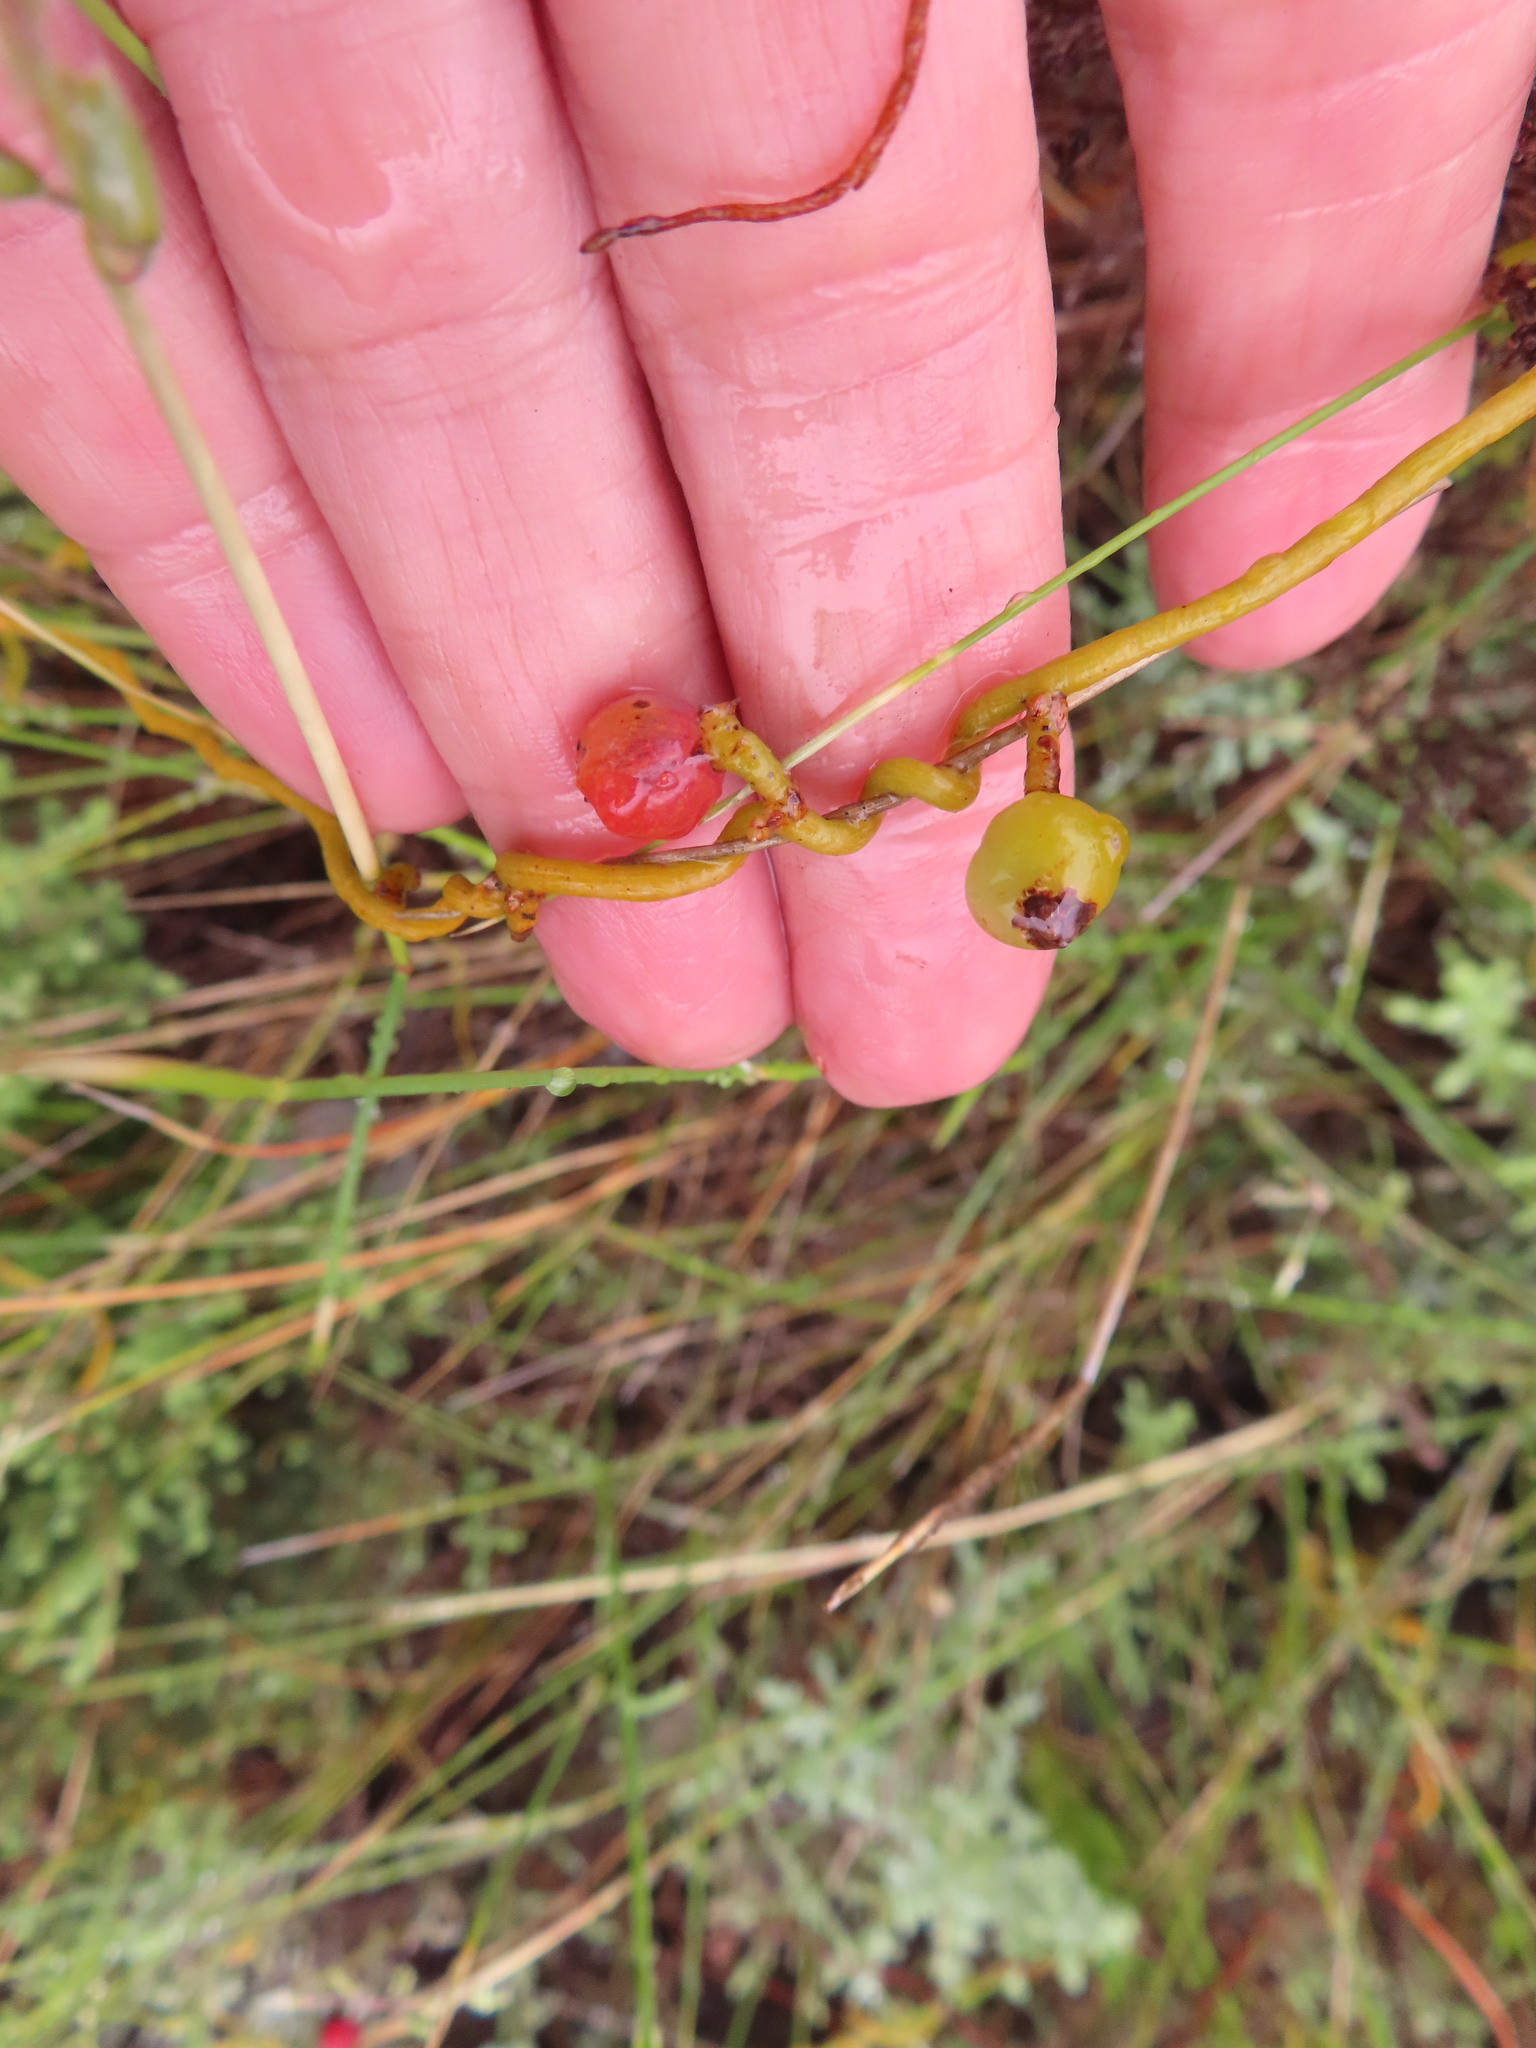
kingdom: Plantae
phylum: Tracheophyta
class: Magnoliopsida
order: Laurales
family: Lauraceae
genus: Cassytha
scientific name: Cassytha ciliolata
